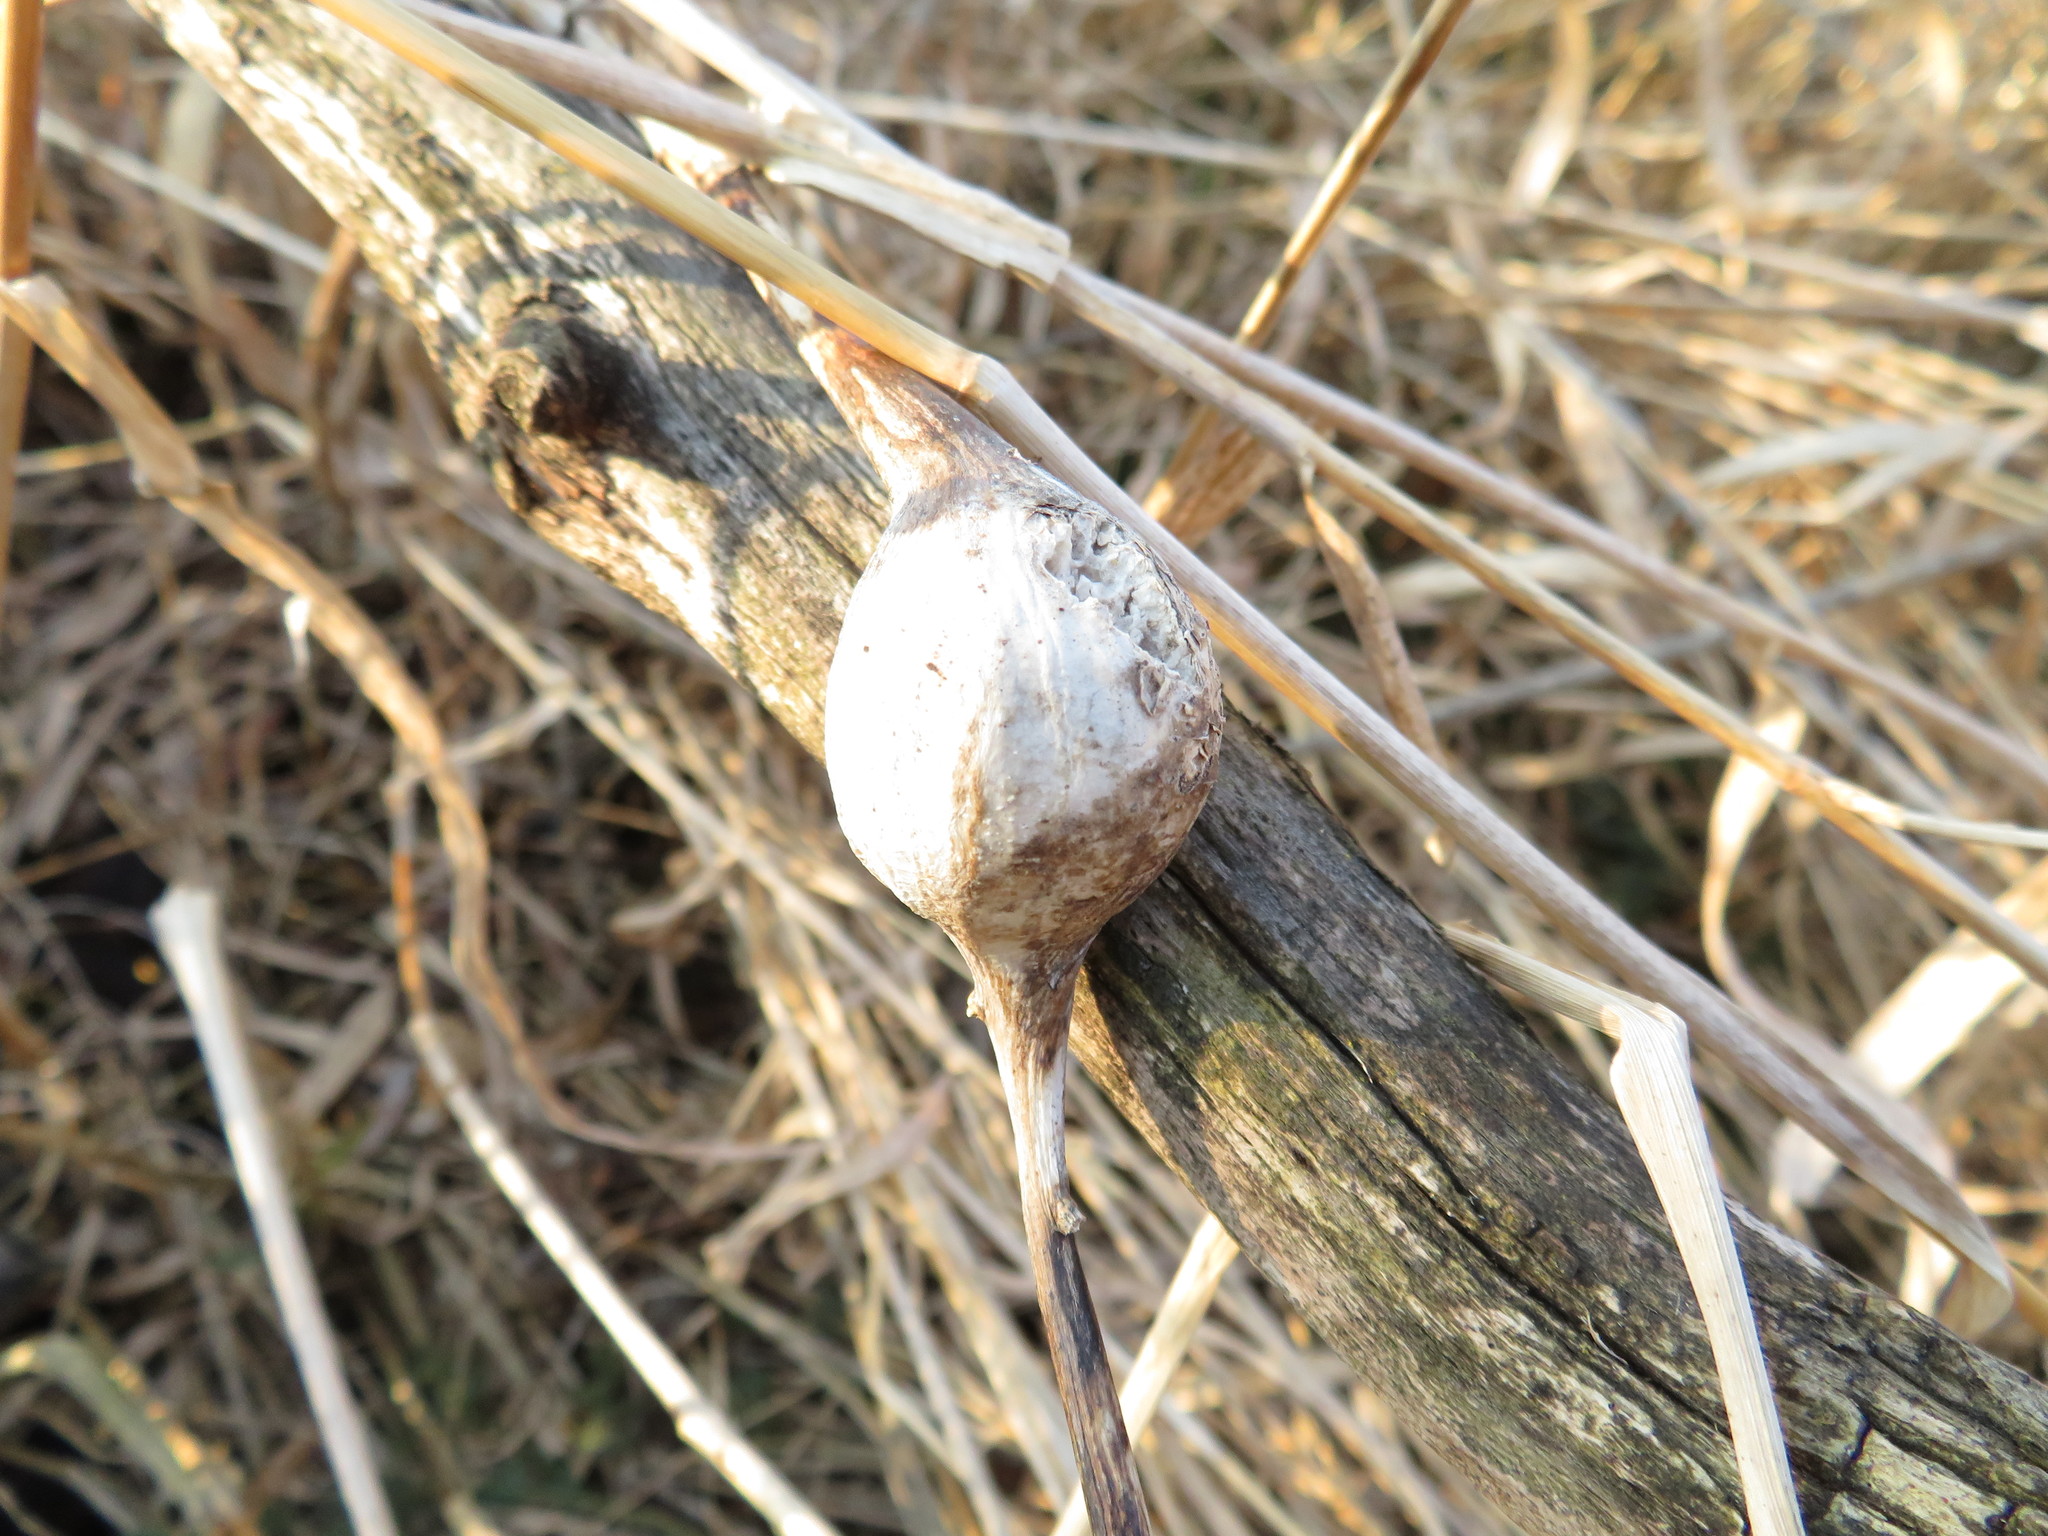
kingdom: Animalia
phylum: Arthropoda
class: Insecta
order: Diptera
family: Tephritidae
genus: Eurosta
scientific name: Eurosta solidaginis
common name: Goldenrod gall fly
